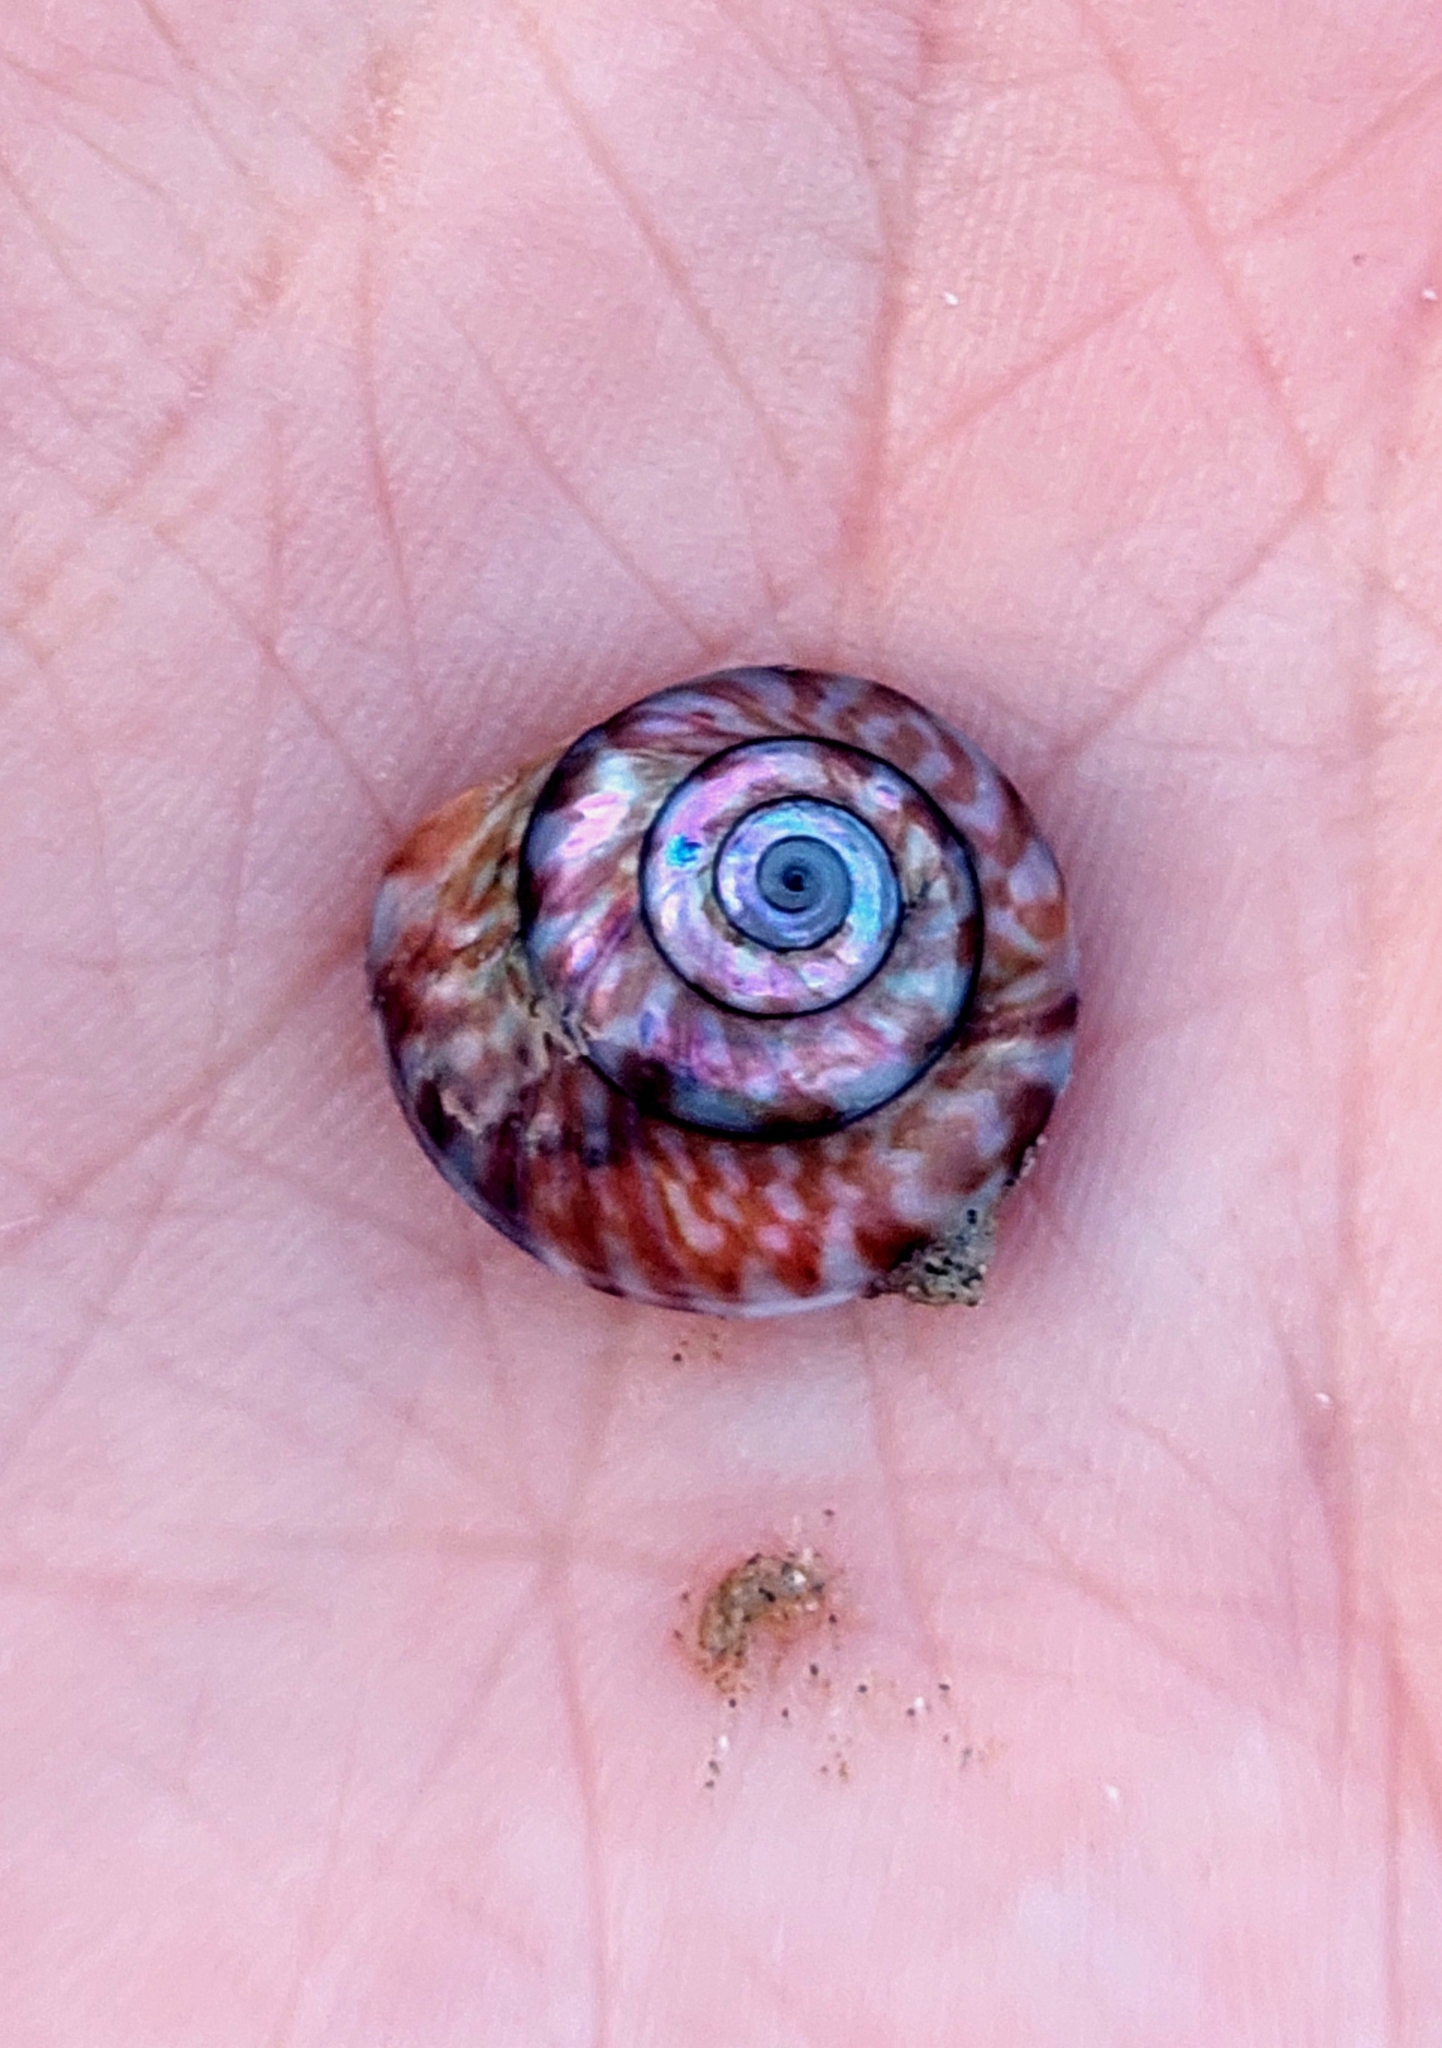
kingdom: Animalia
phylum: Mollusca
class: Gastropoda
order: Trochida
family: Trochidae
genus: Zethalia
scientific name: Zethalia zelandica
